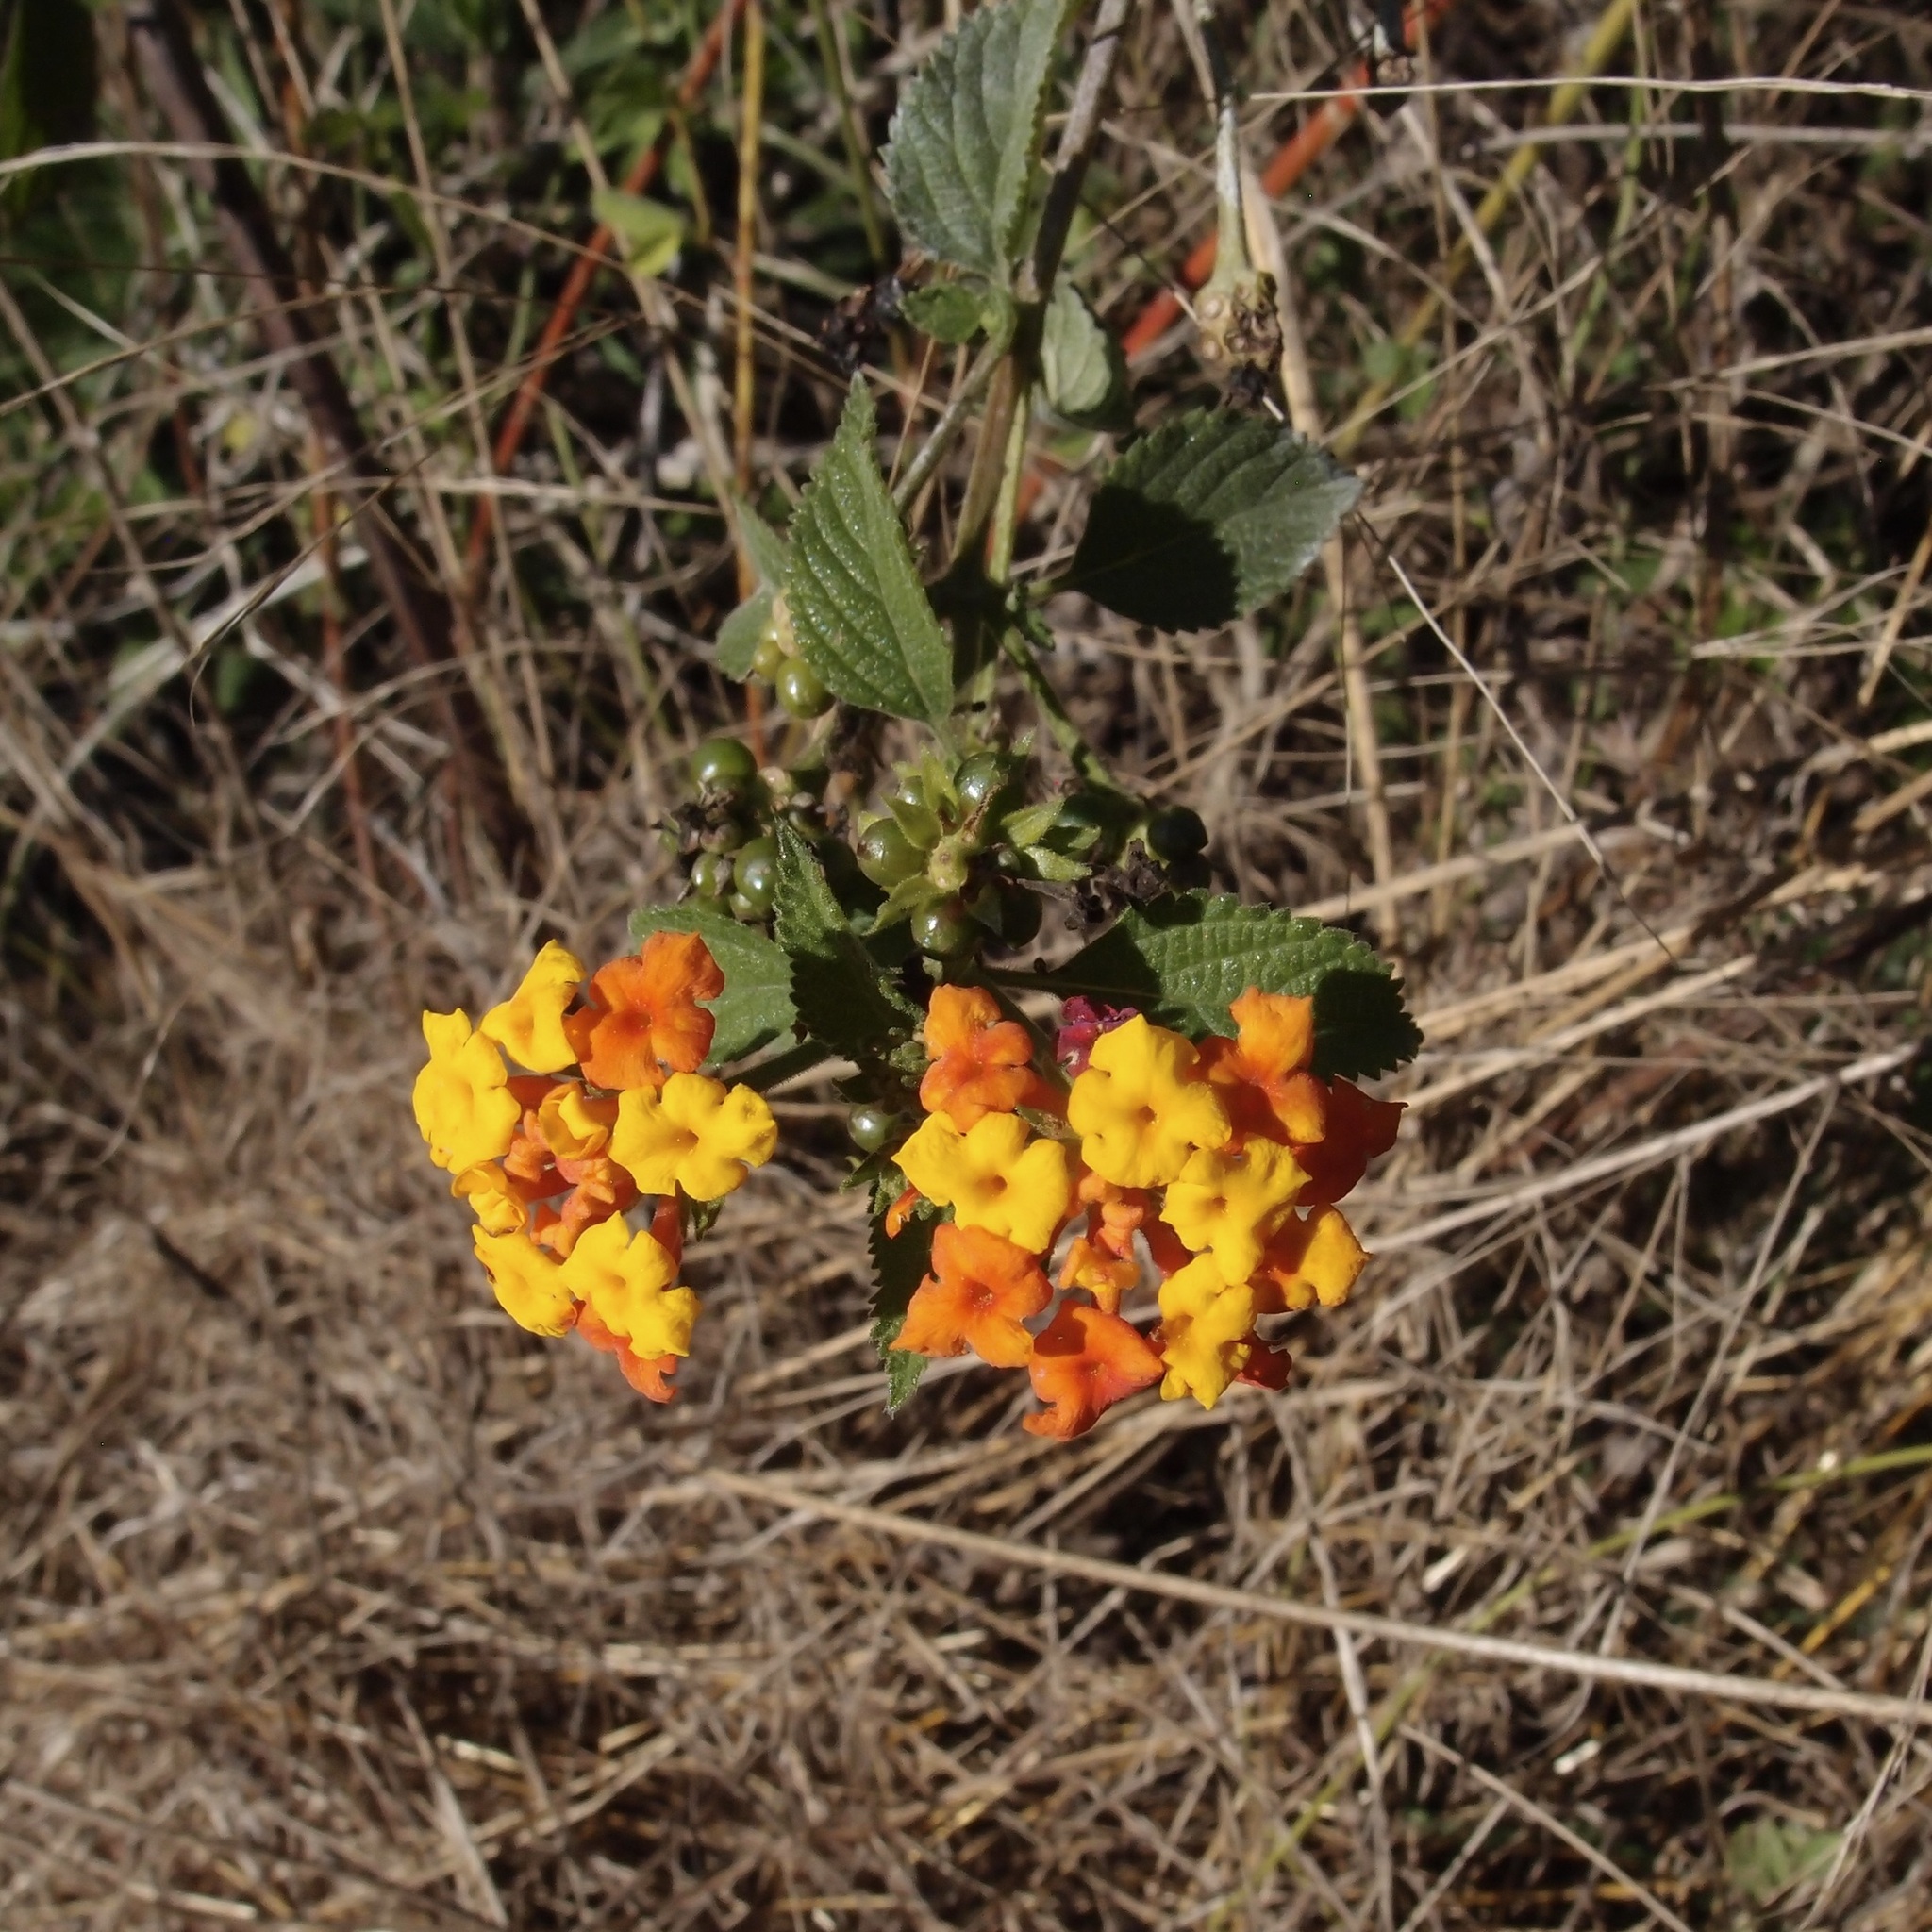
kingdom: Plantae
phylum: Tracheophyta
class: Magnoliopsida
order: Lamiales
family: Verbenaceae
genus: Lantana
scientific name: Lantana camara
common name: Lantana
